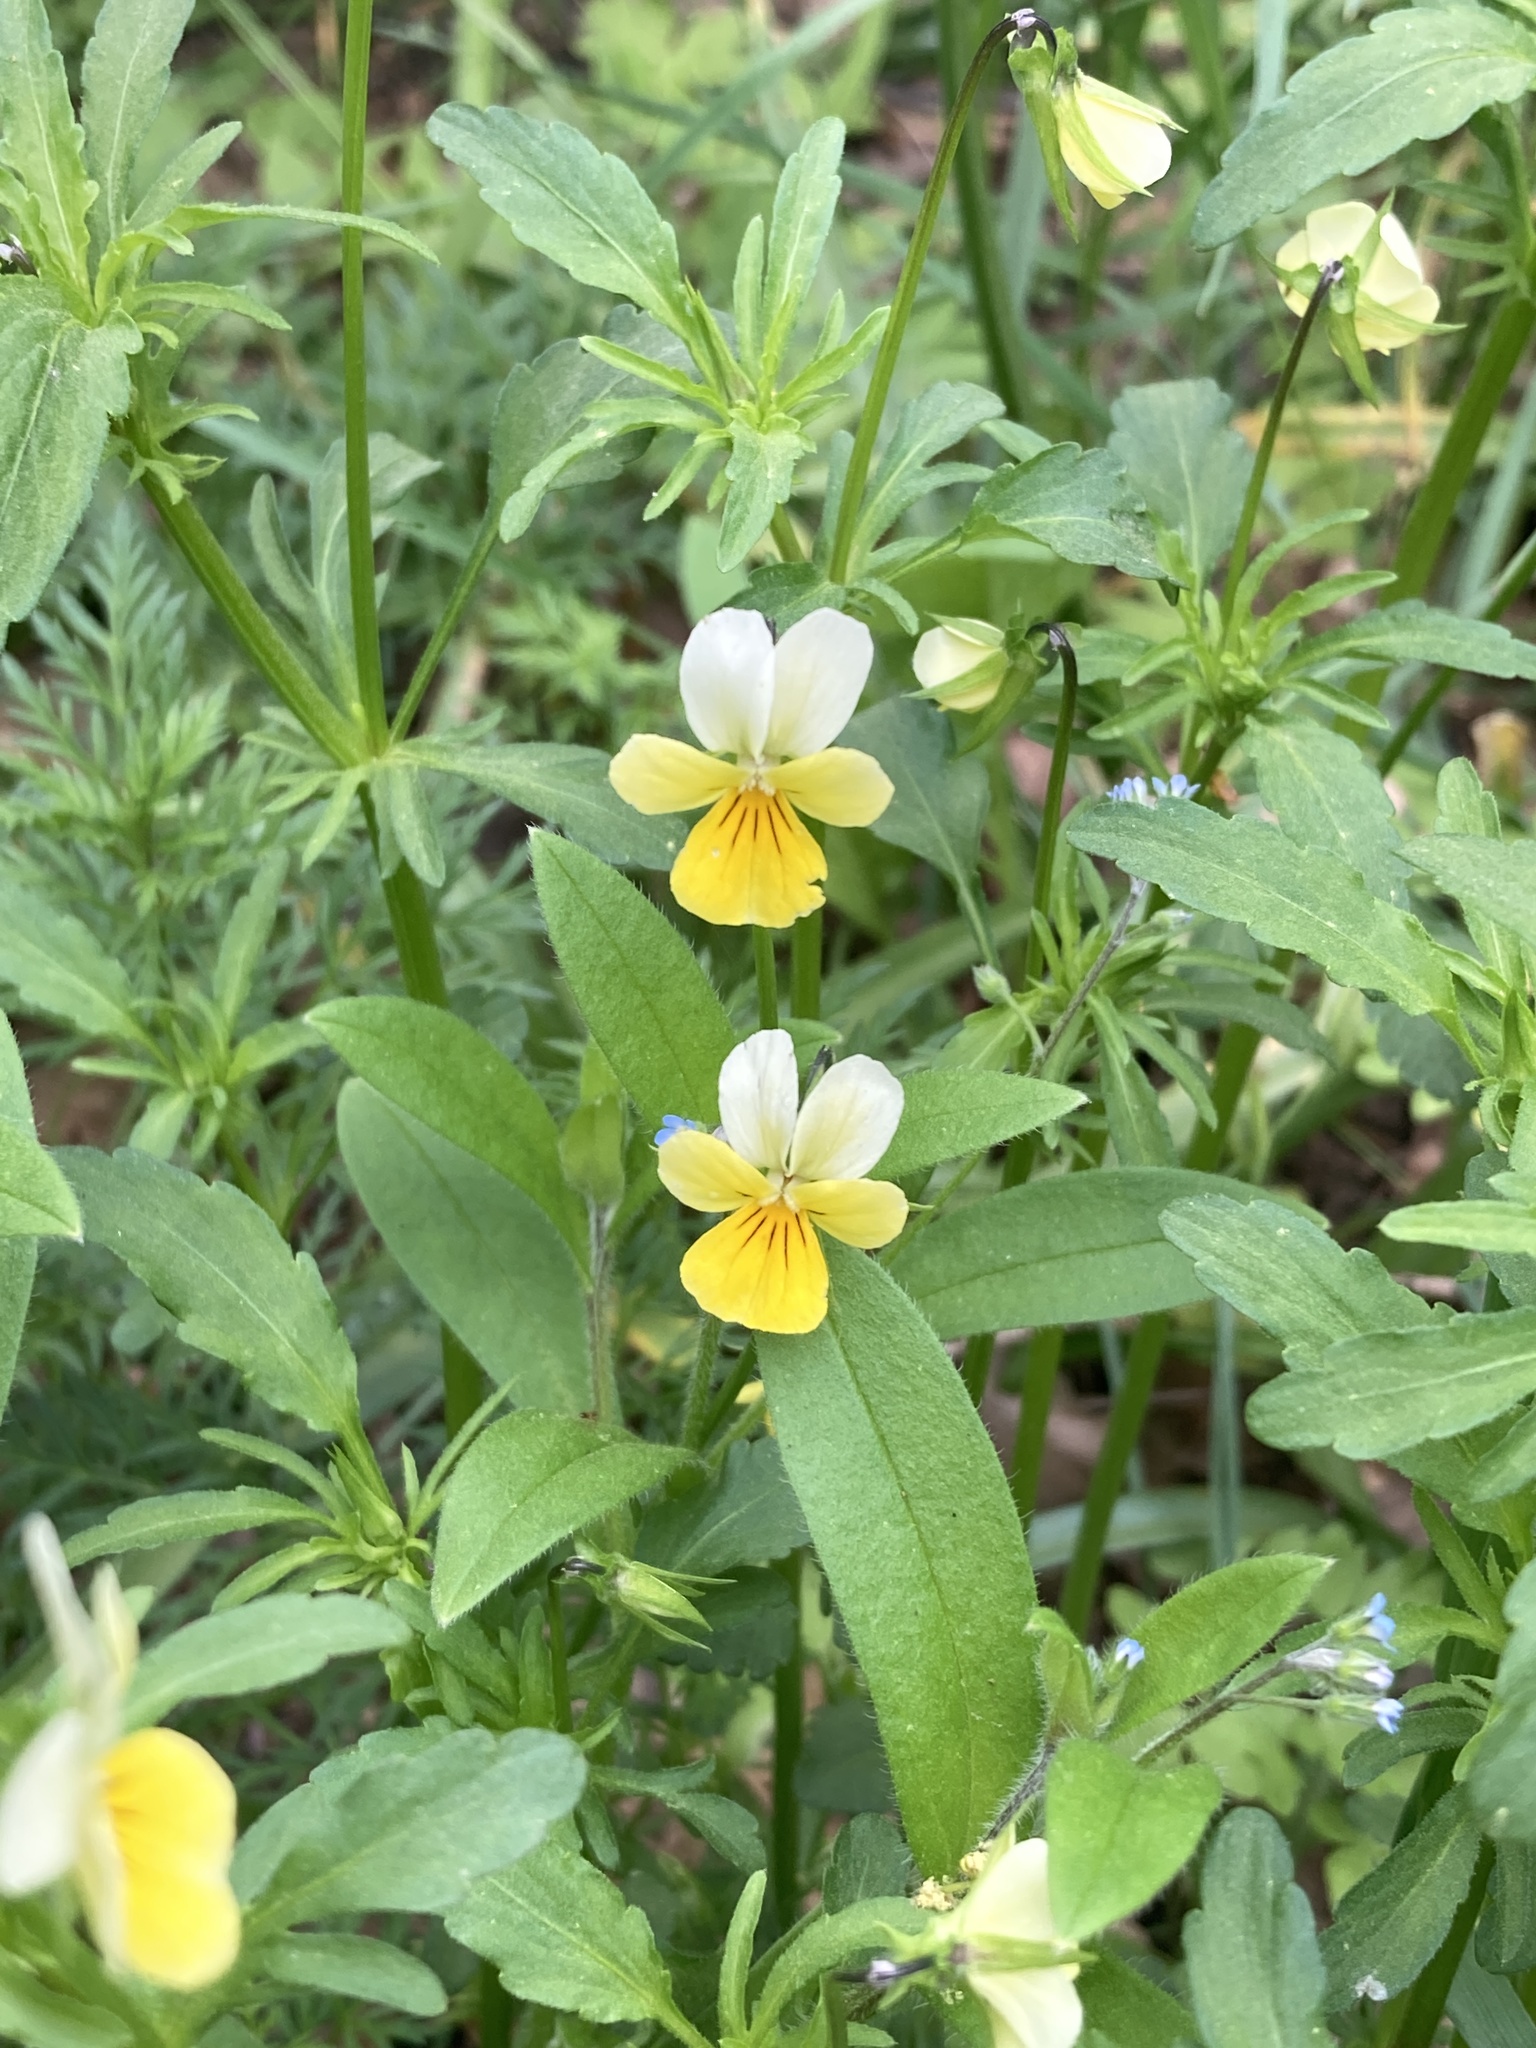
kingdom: Plantae
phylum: Tracheophyta
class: Magnoliopsida
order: Malpighiales
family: Violaceae
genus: Viola
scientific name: Viola arvensis
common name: Field pansy
